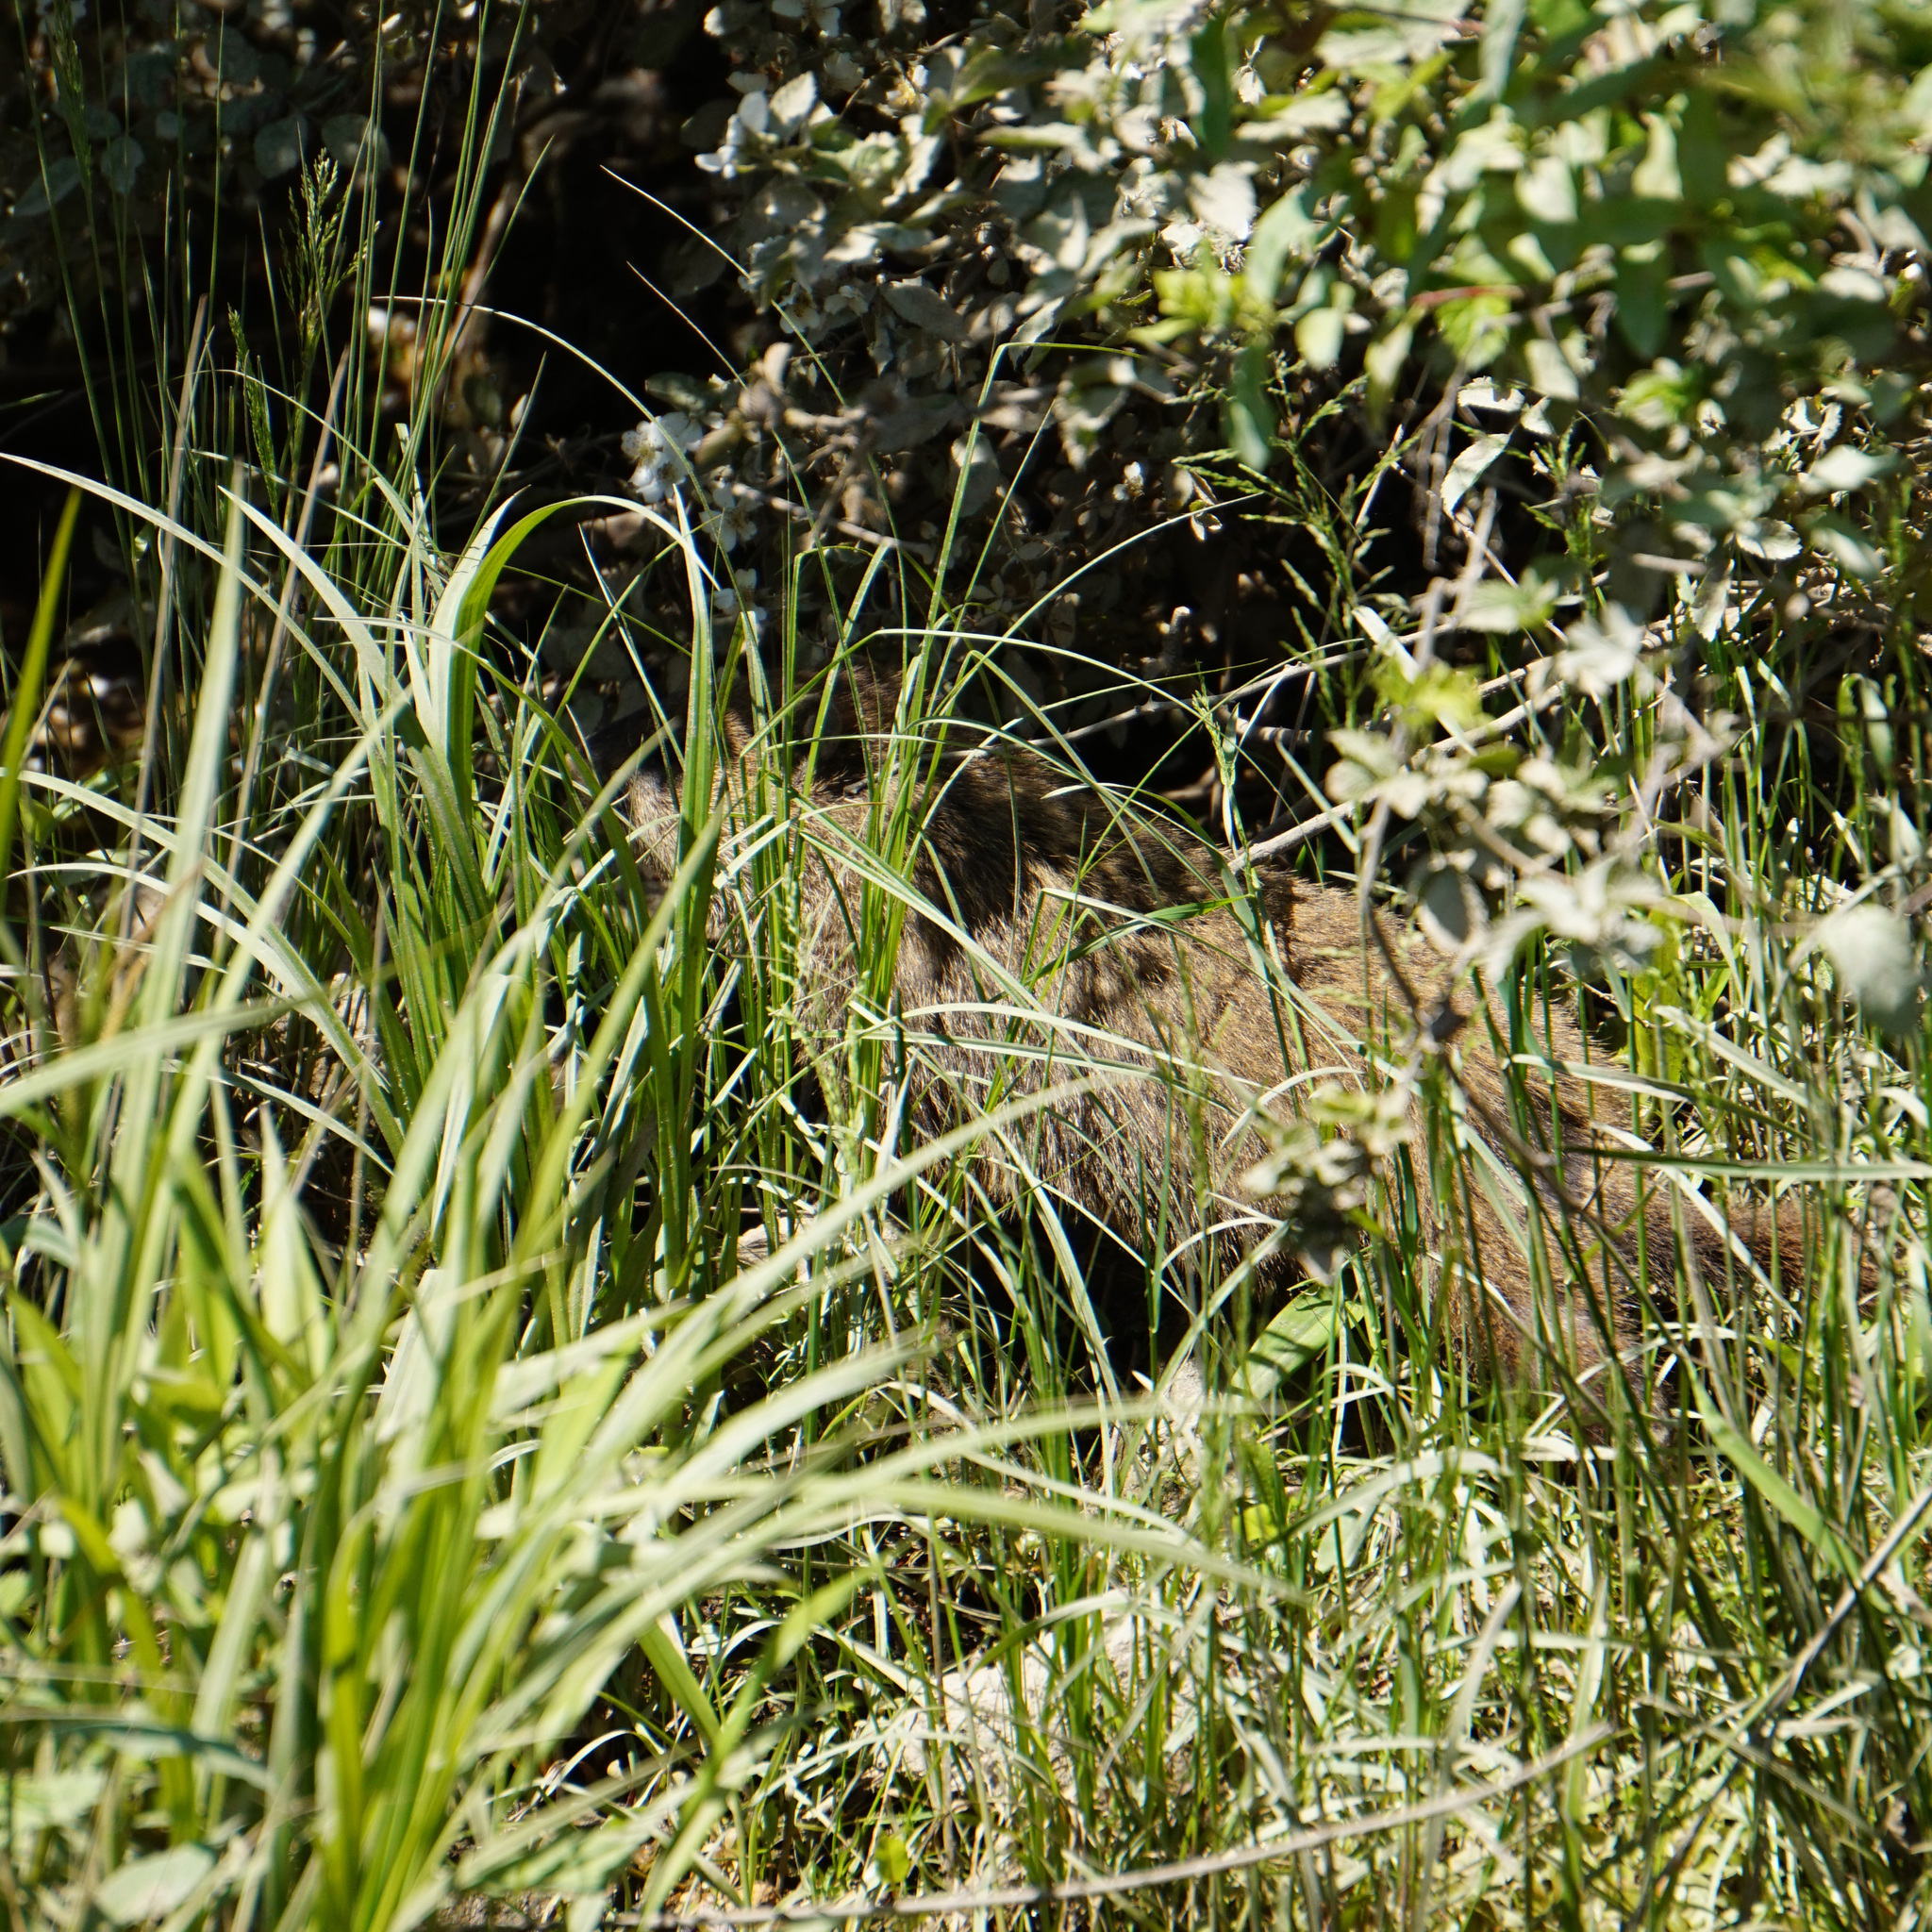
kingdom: Animalia
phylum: Chordata
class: Mammalia
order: Rodentia
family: Sciuridae
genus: Marmota
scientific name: Marmota monax
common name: Groundhog
